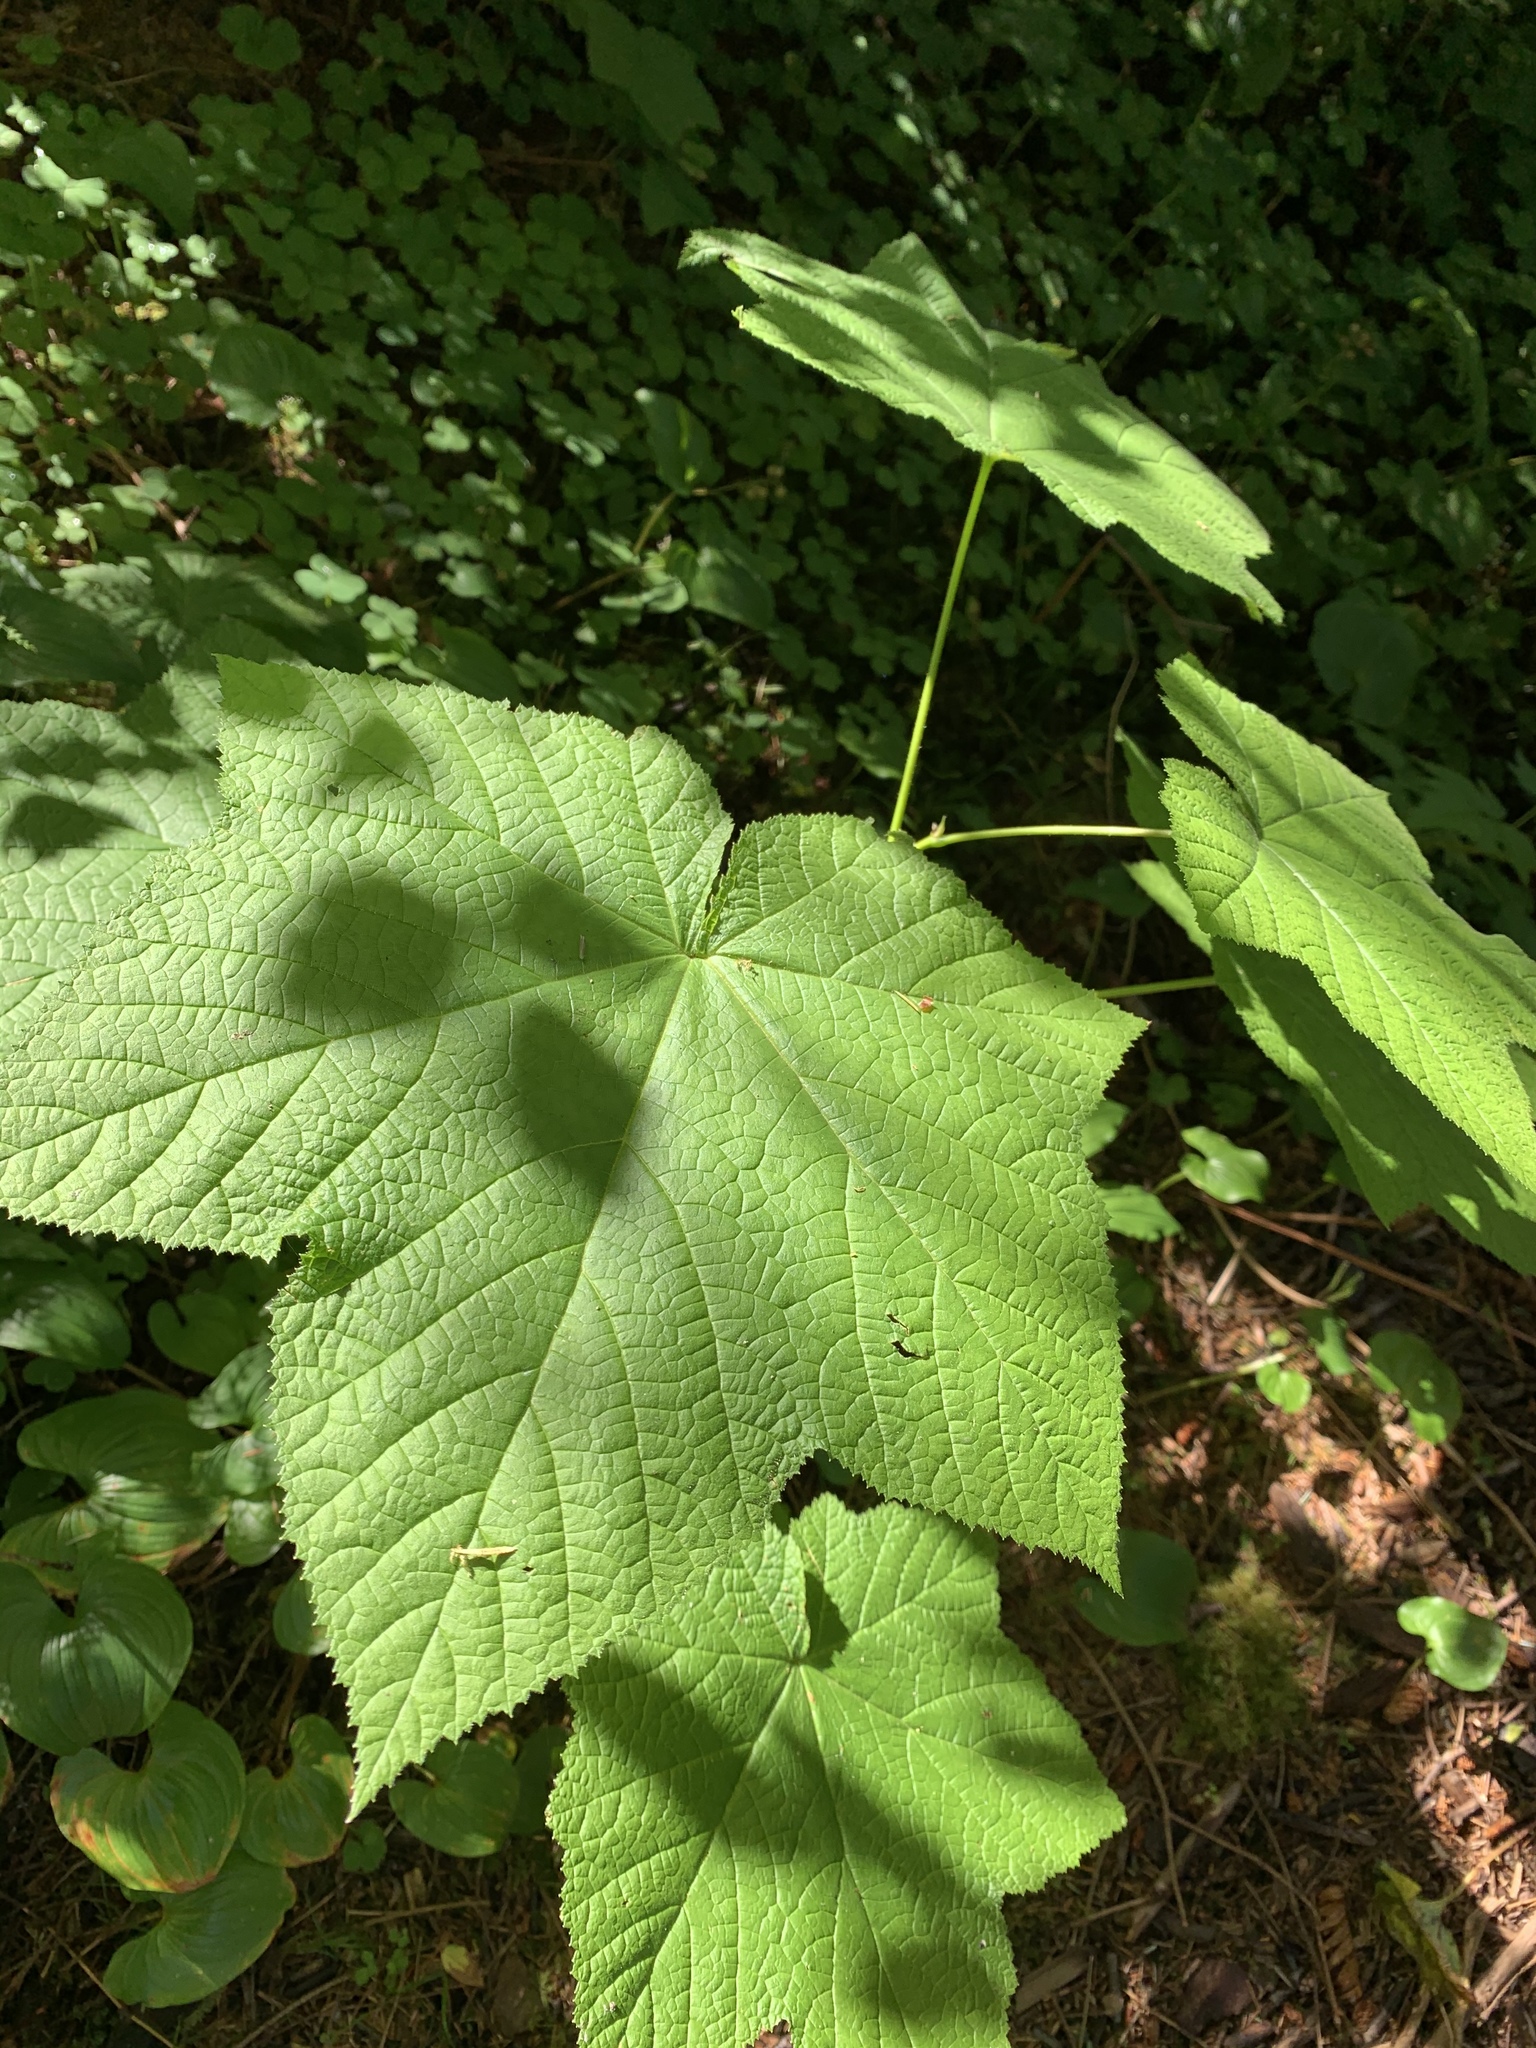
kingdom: Plantae
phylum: Tracheophyta
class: Magnoliopsida
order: Rosales
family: Rosaceae
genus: Rubus
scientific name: Rubus parviflorus
